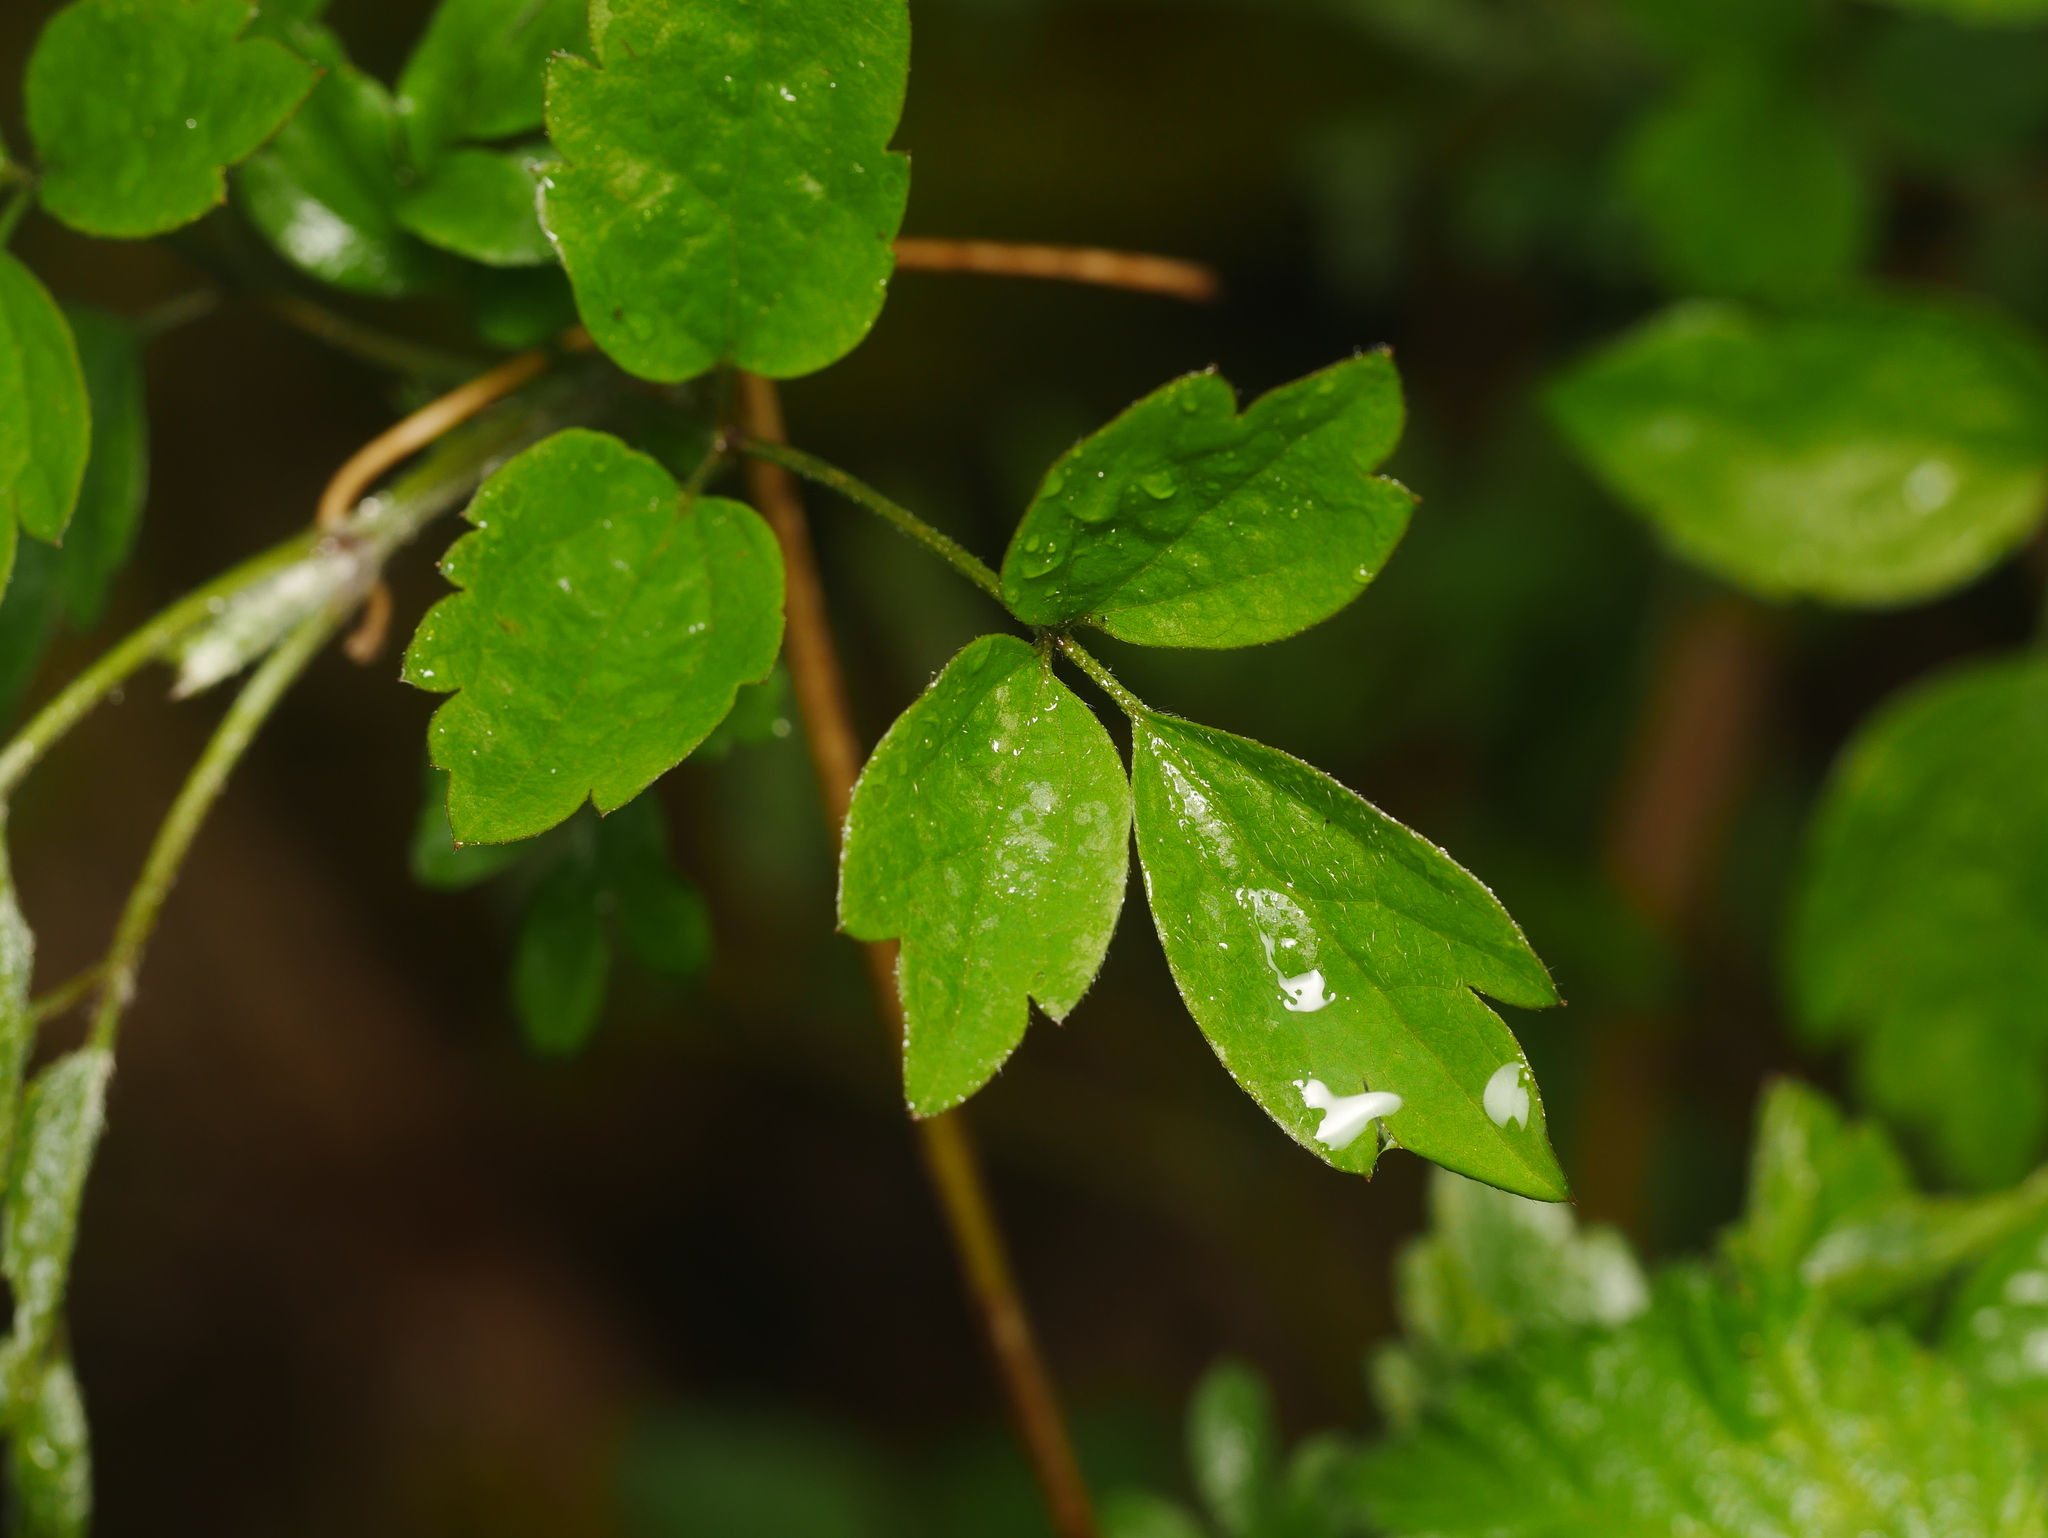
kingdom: Plantae
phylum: Tracheophyta
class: Magnoliopsida
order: Ranunculales
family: Ranunculaceae
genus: Clematis
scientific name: Clematis vitalba
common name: Evergreen clematis
